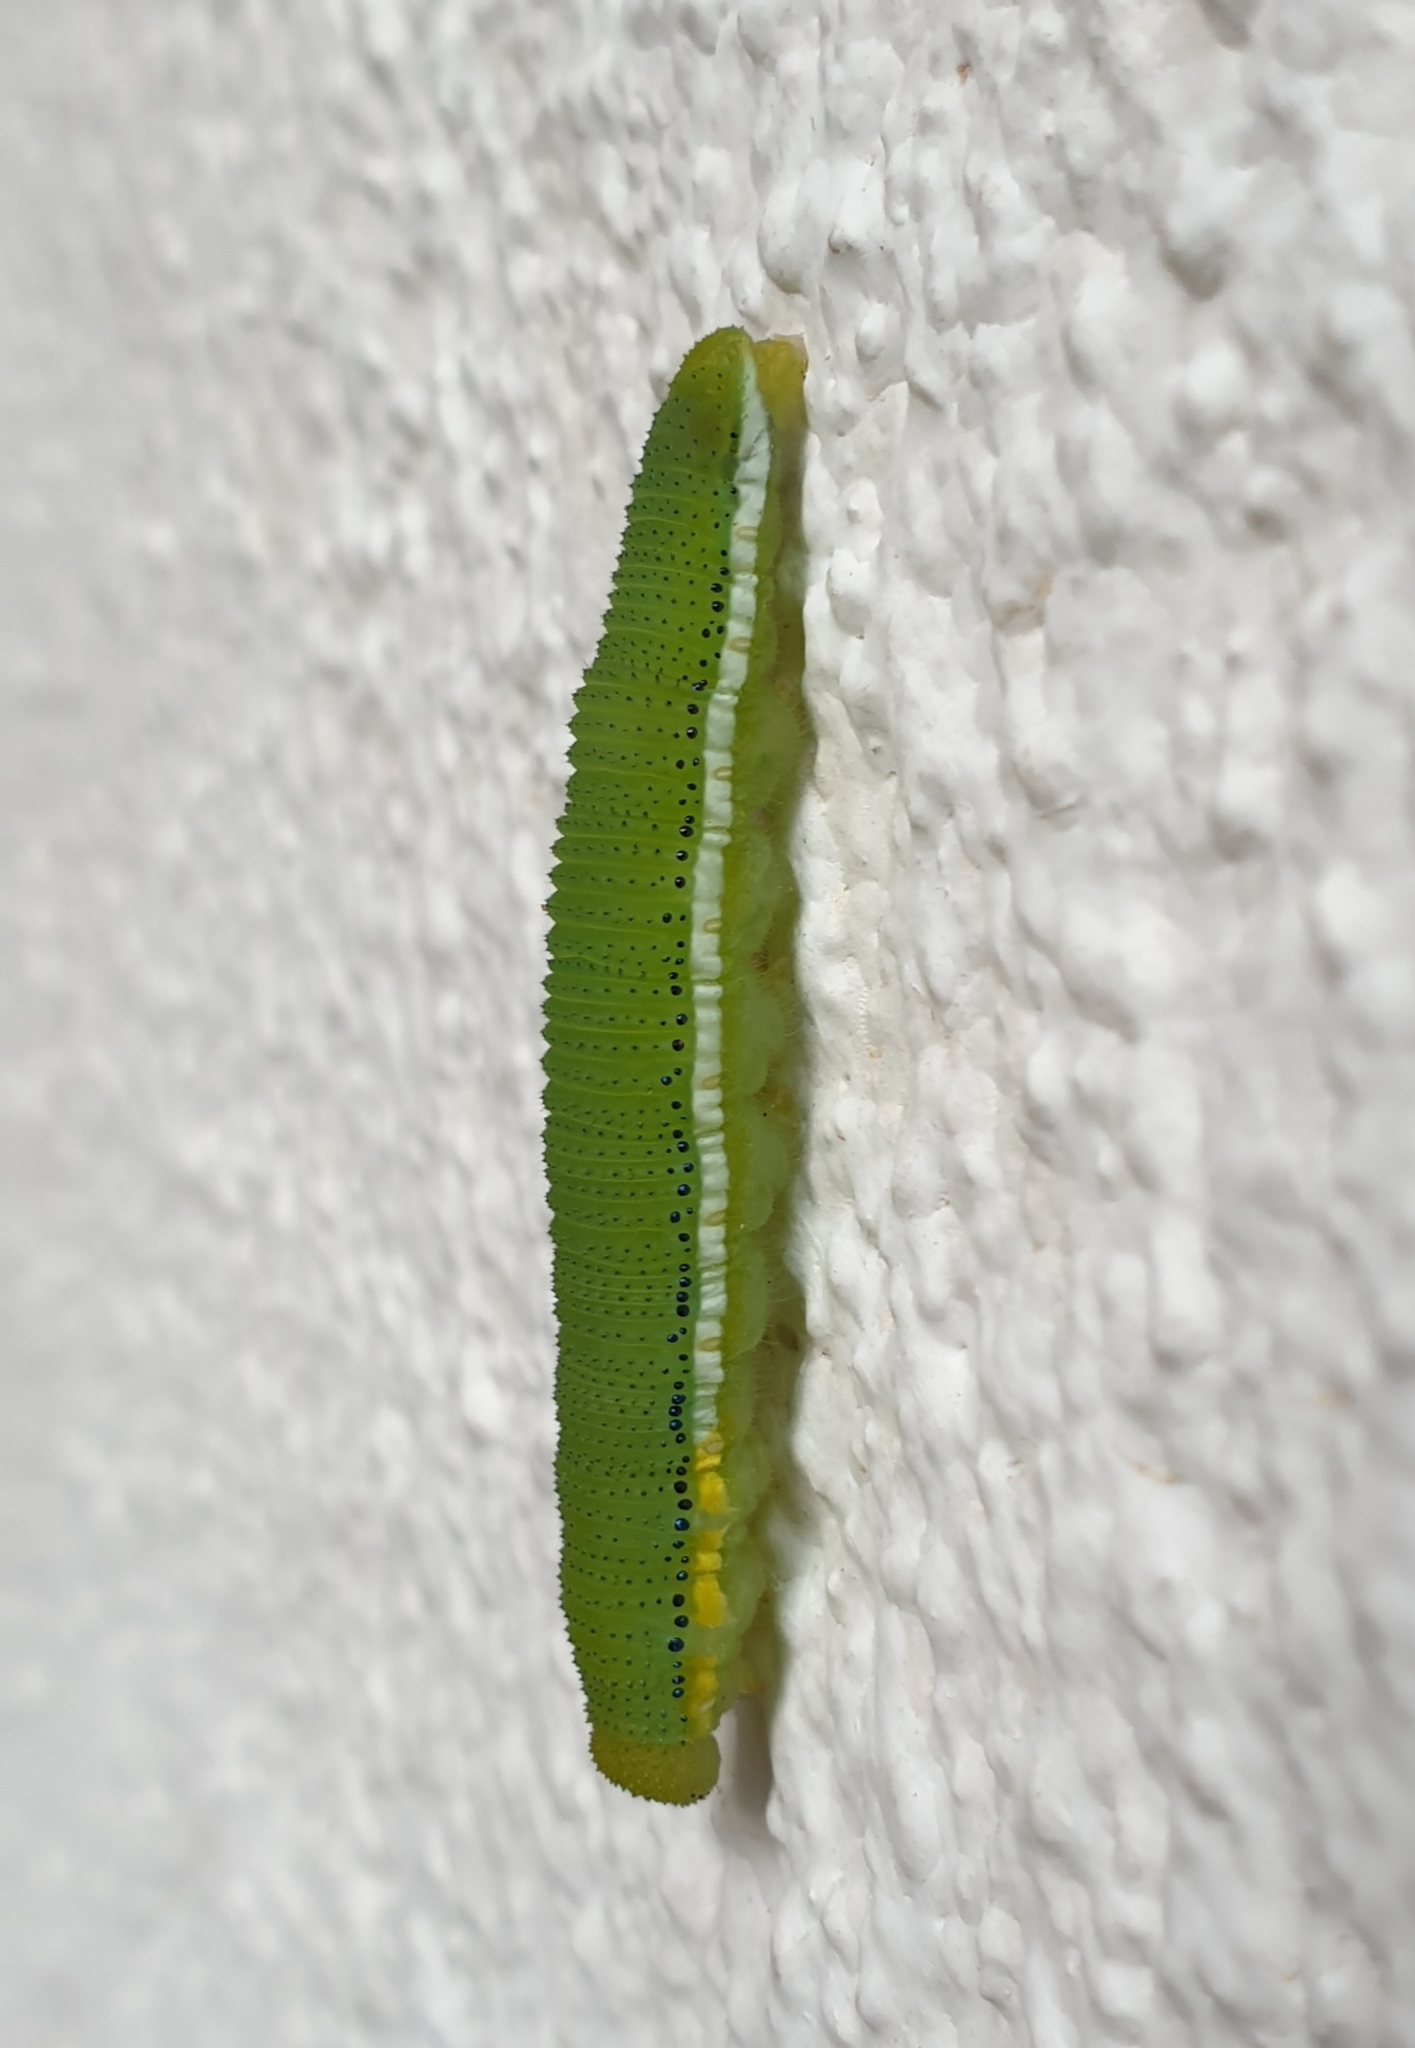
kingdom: Animalia
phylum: Arthropoda
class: Insecta
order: Lepidoptera
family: Pieridae
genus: Catopsilia
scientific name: Catopsilia pomona
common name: Common emigrant
